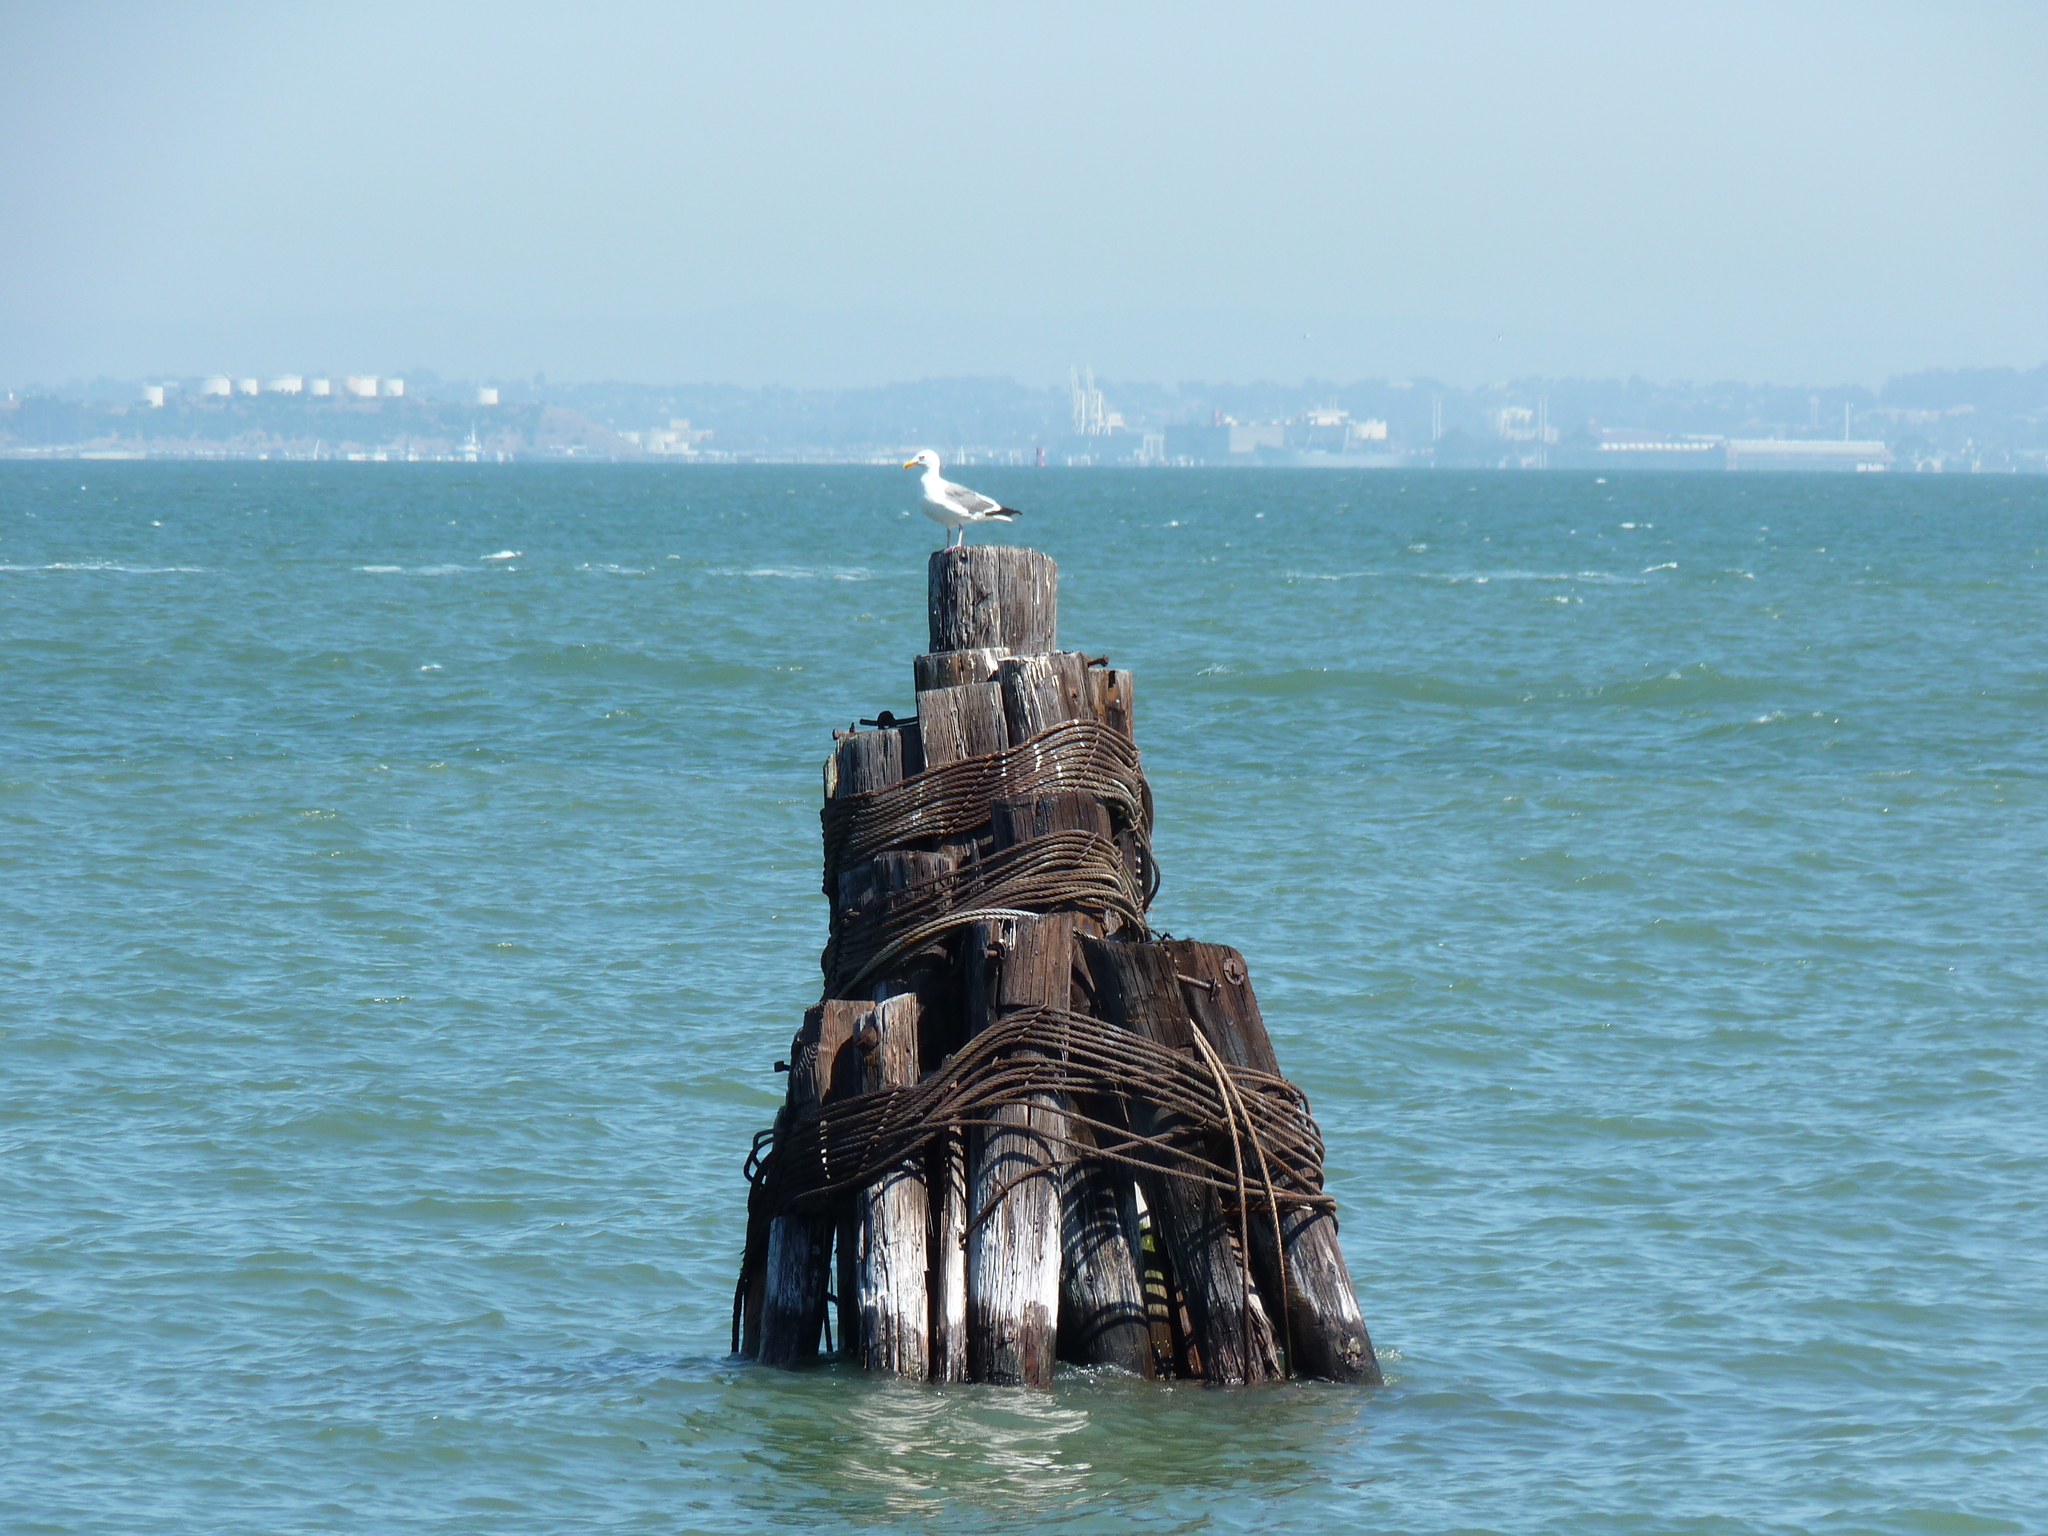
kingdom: Animalia
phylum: Chordata
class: Aves
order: Charadriiformes
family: Laridae
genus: Larus
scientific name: Larus occidentalis
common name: Western gull
